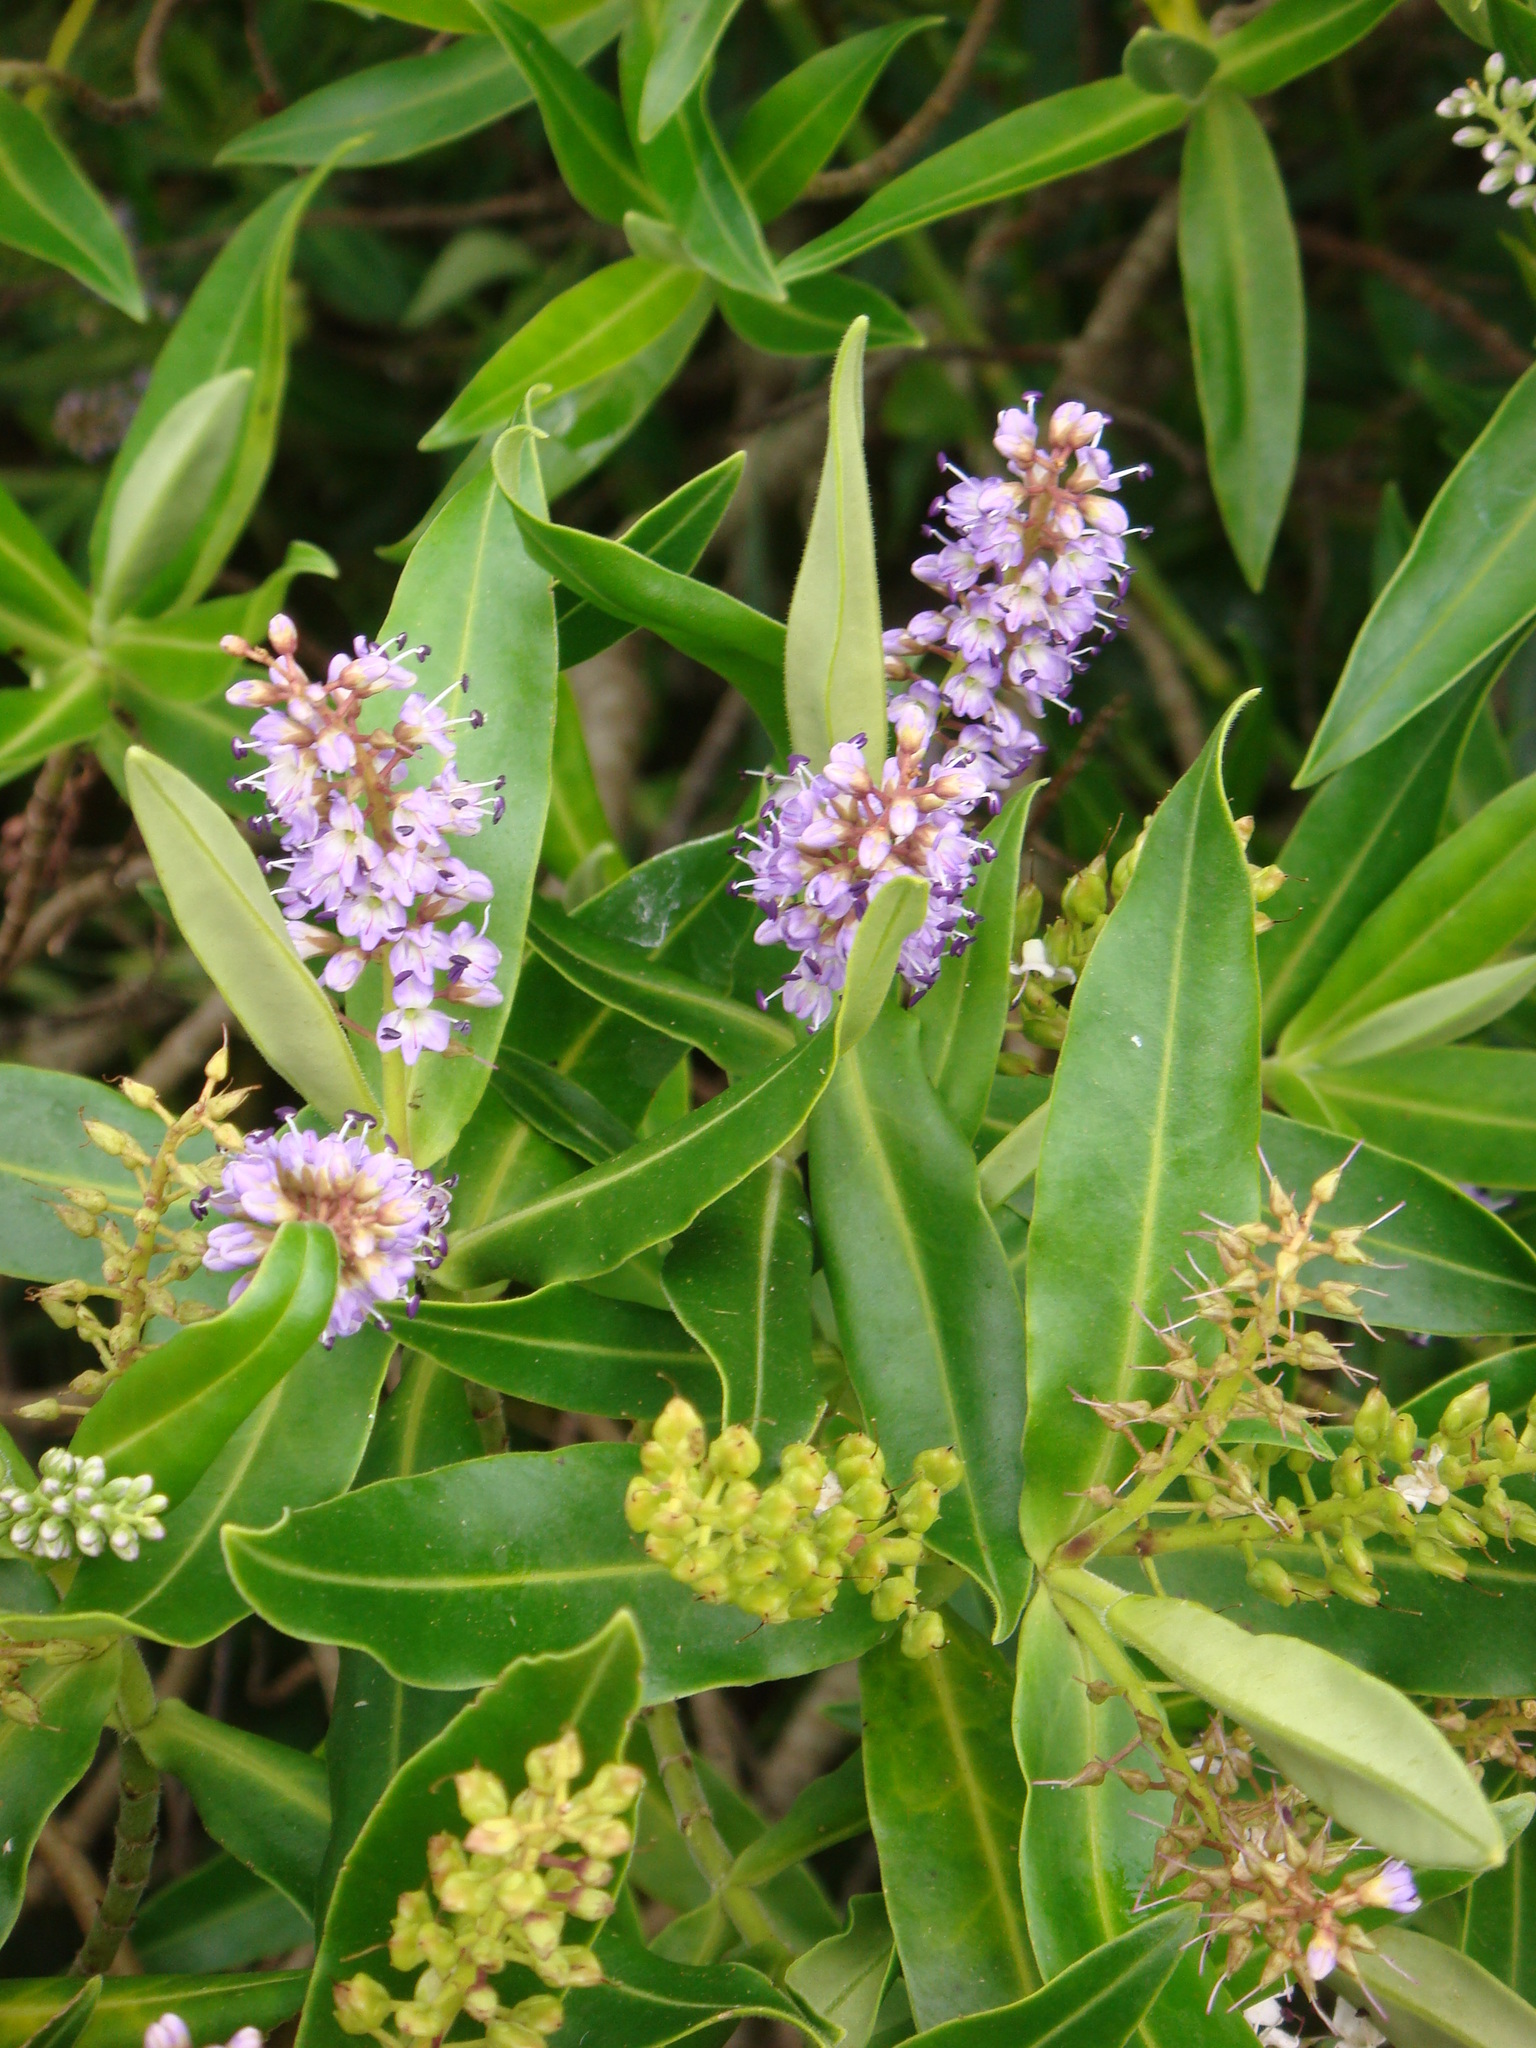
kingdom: Plantae
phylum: Tracheophyta
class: Magnoliopsida
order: Lamiales
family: Plantaginaceae
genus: Veronica
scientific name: Veronica barkeri
